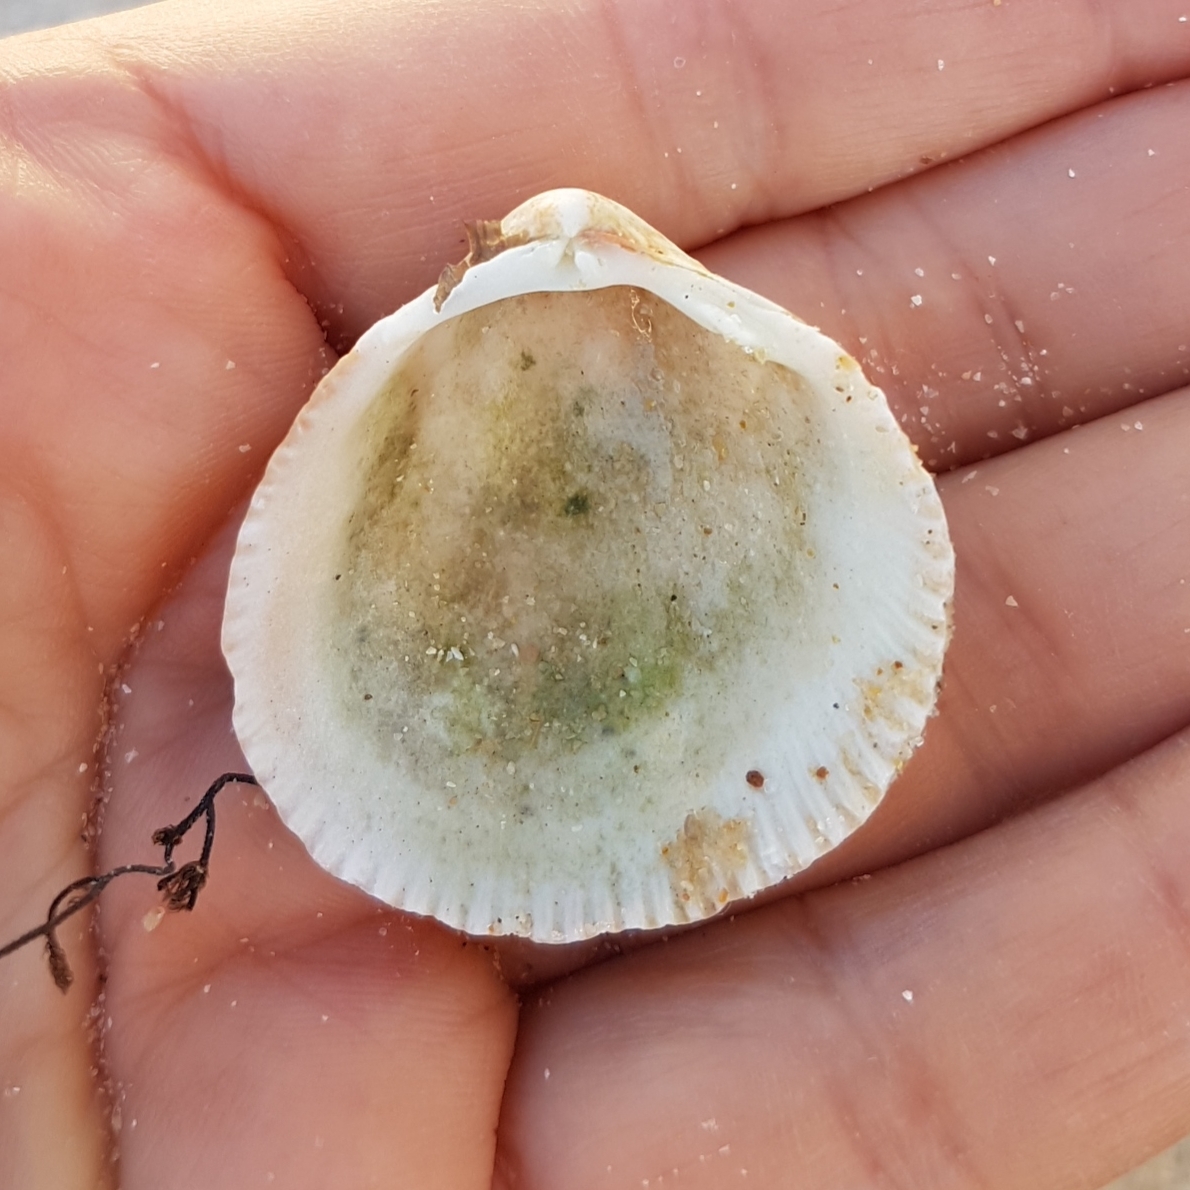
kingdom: Animalia
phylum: Mollusca
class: Bivalvia
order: Cardiida
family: Cardiidae
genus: Laevicardium
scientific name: Laevicardium crassum
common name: Norway cockle
